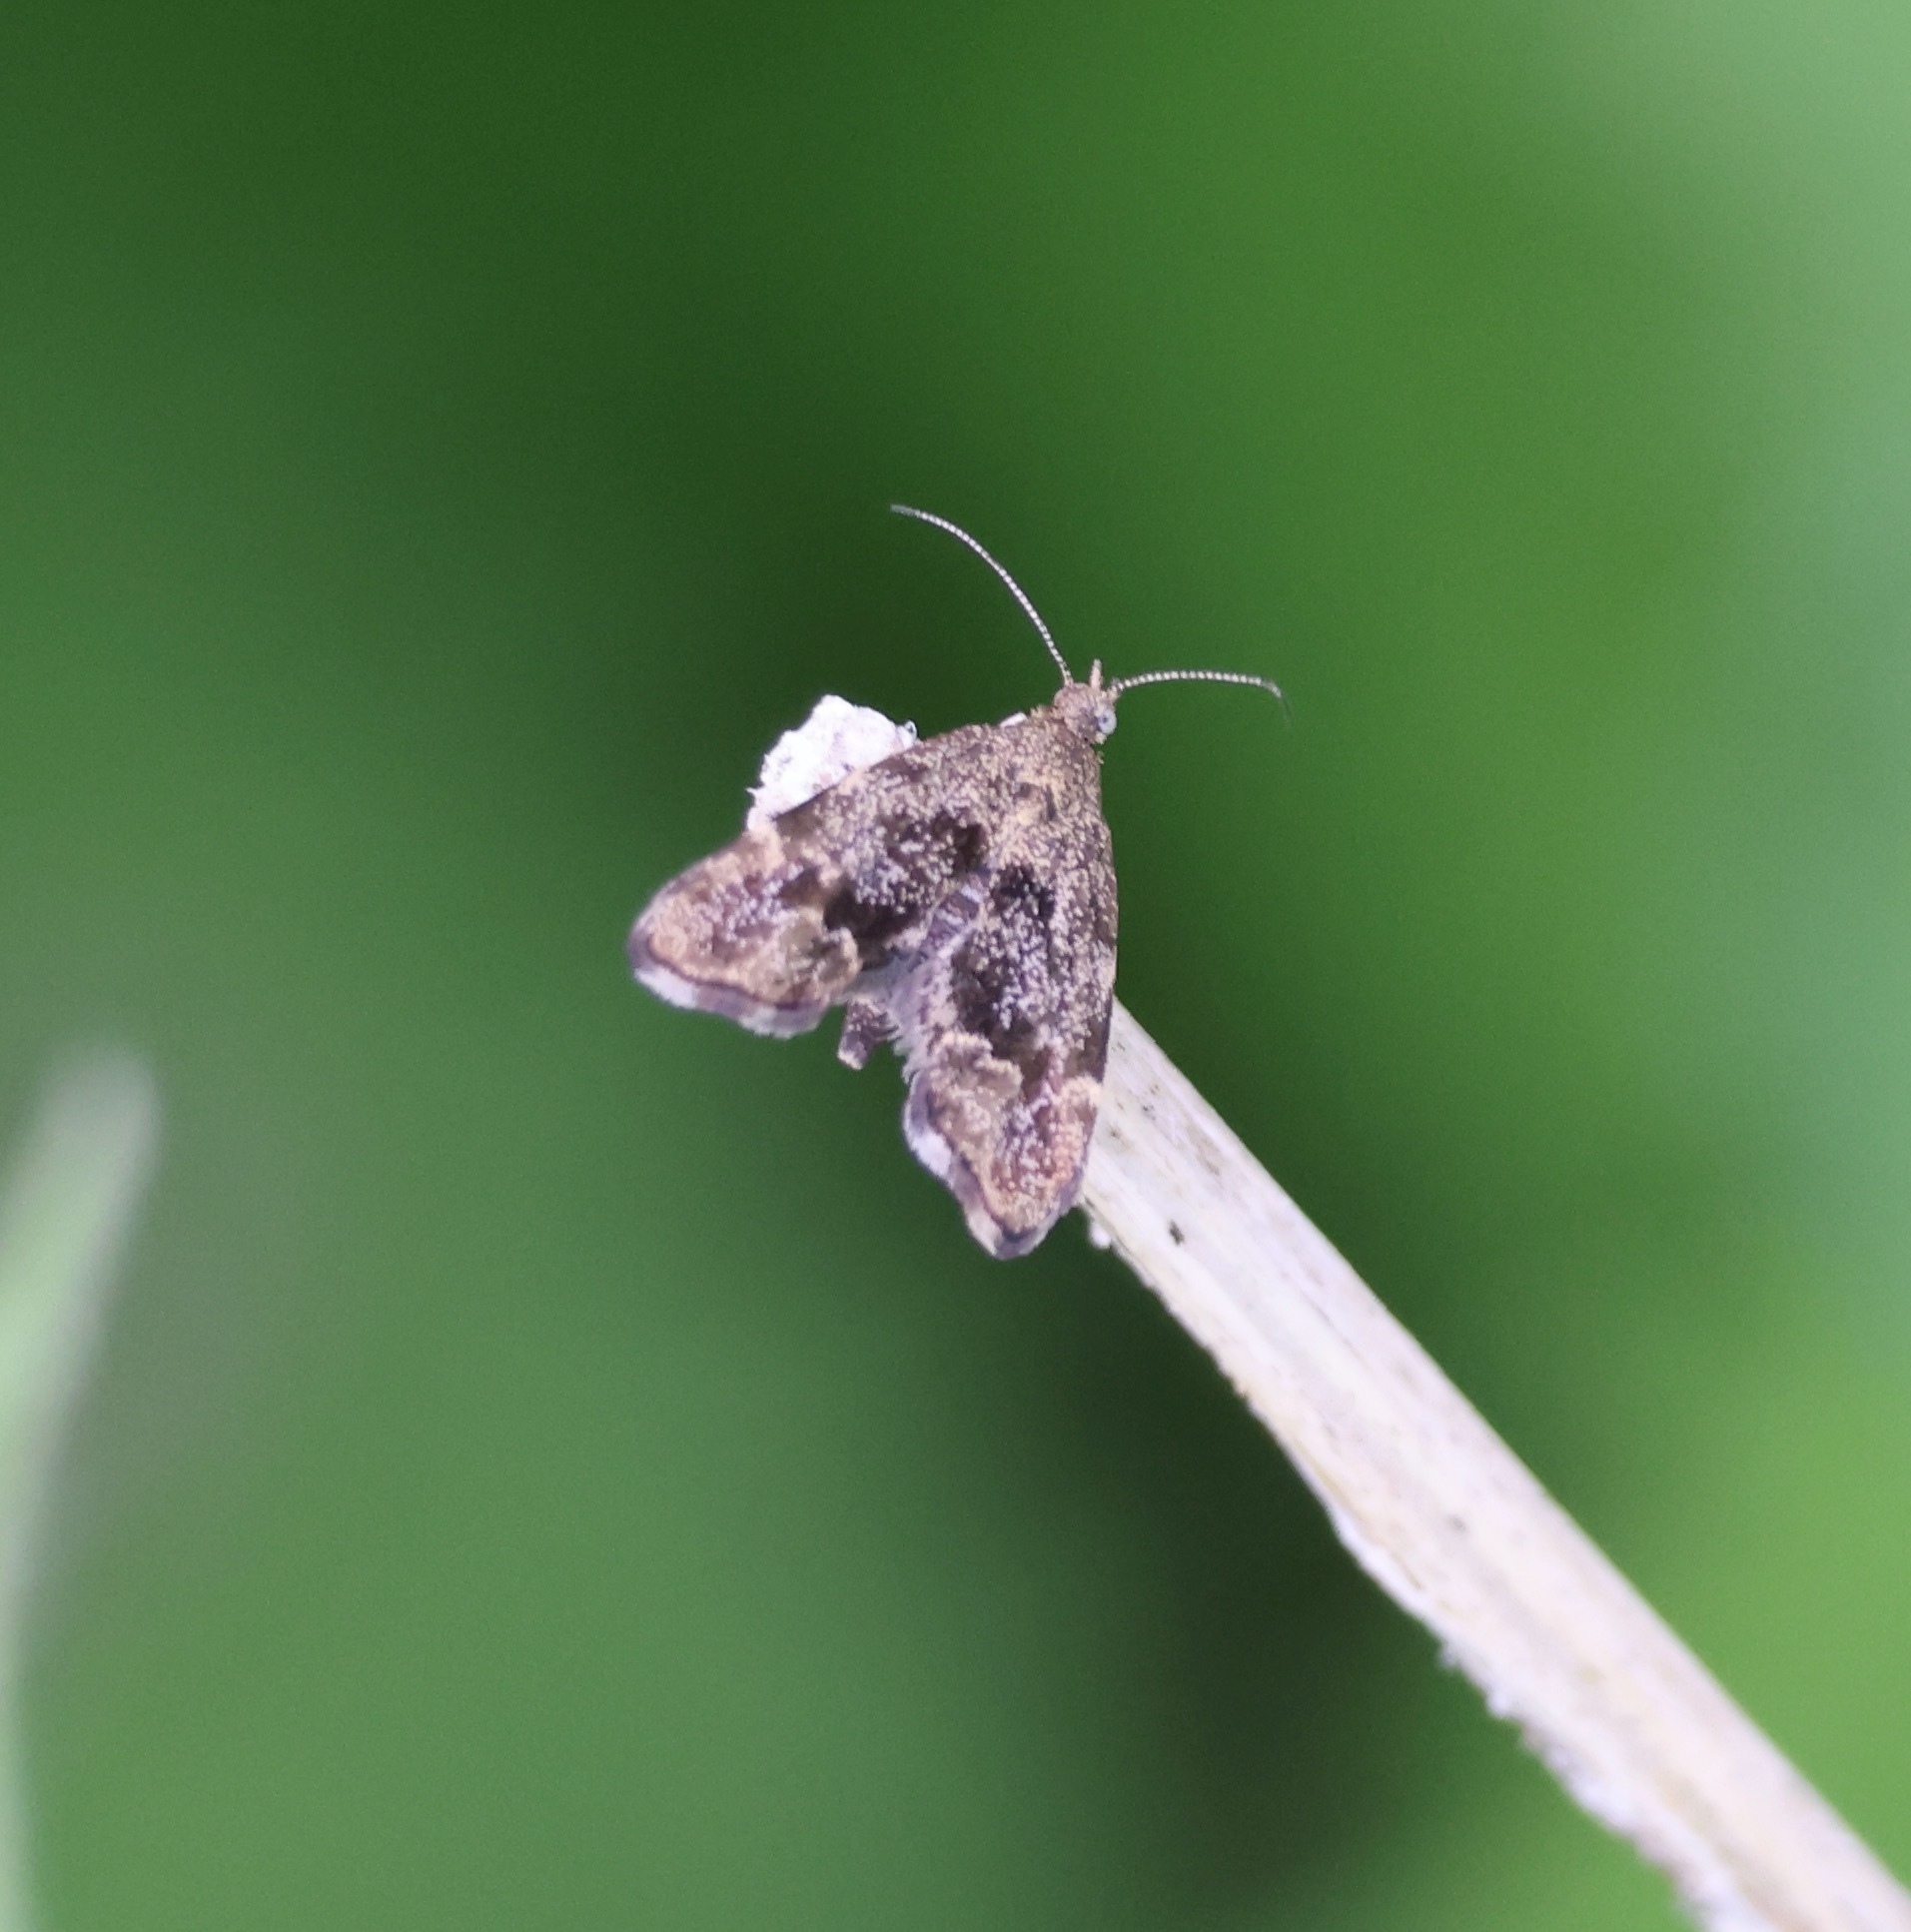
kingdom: Animalia
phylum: Arthropoda
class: Insecta
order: Lepidoptera
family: Choreutidae
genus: Anthophila
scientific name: Anthophila fabriciana
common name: Nettle-tap
